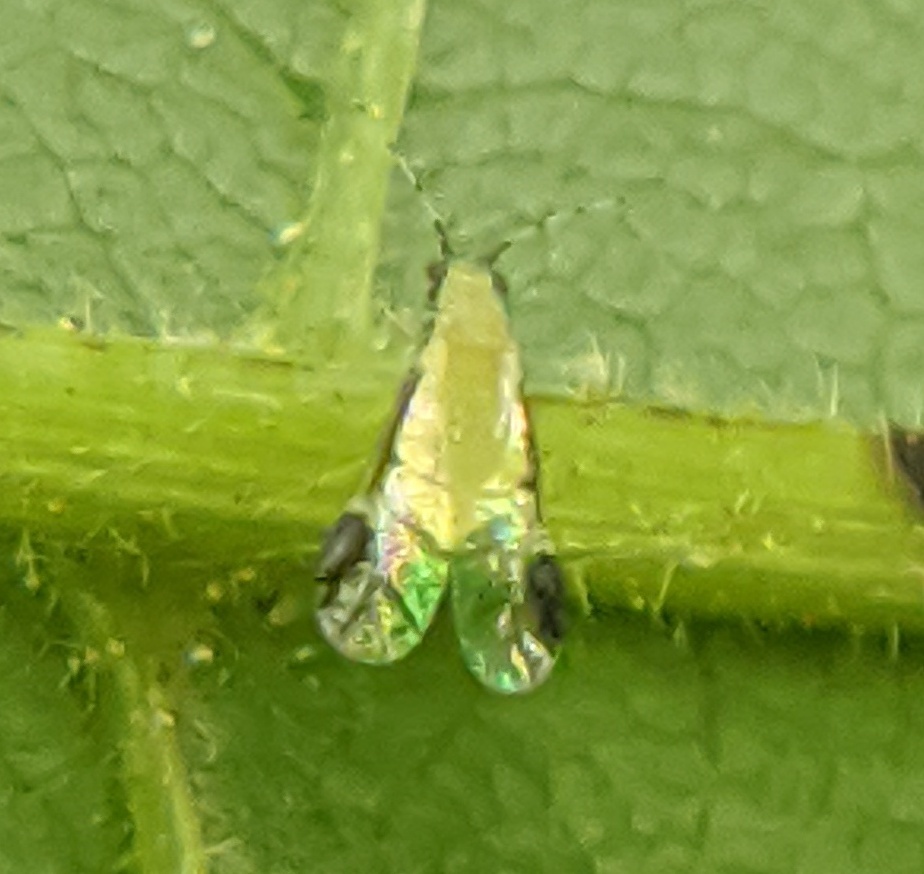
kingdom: Animalia
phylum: Arthropoda
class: Insecta
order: Hemiptera
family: Aphididae
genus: Monellia
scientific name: Monellia caryella
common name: Blackmargined aphid
